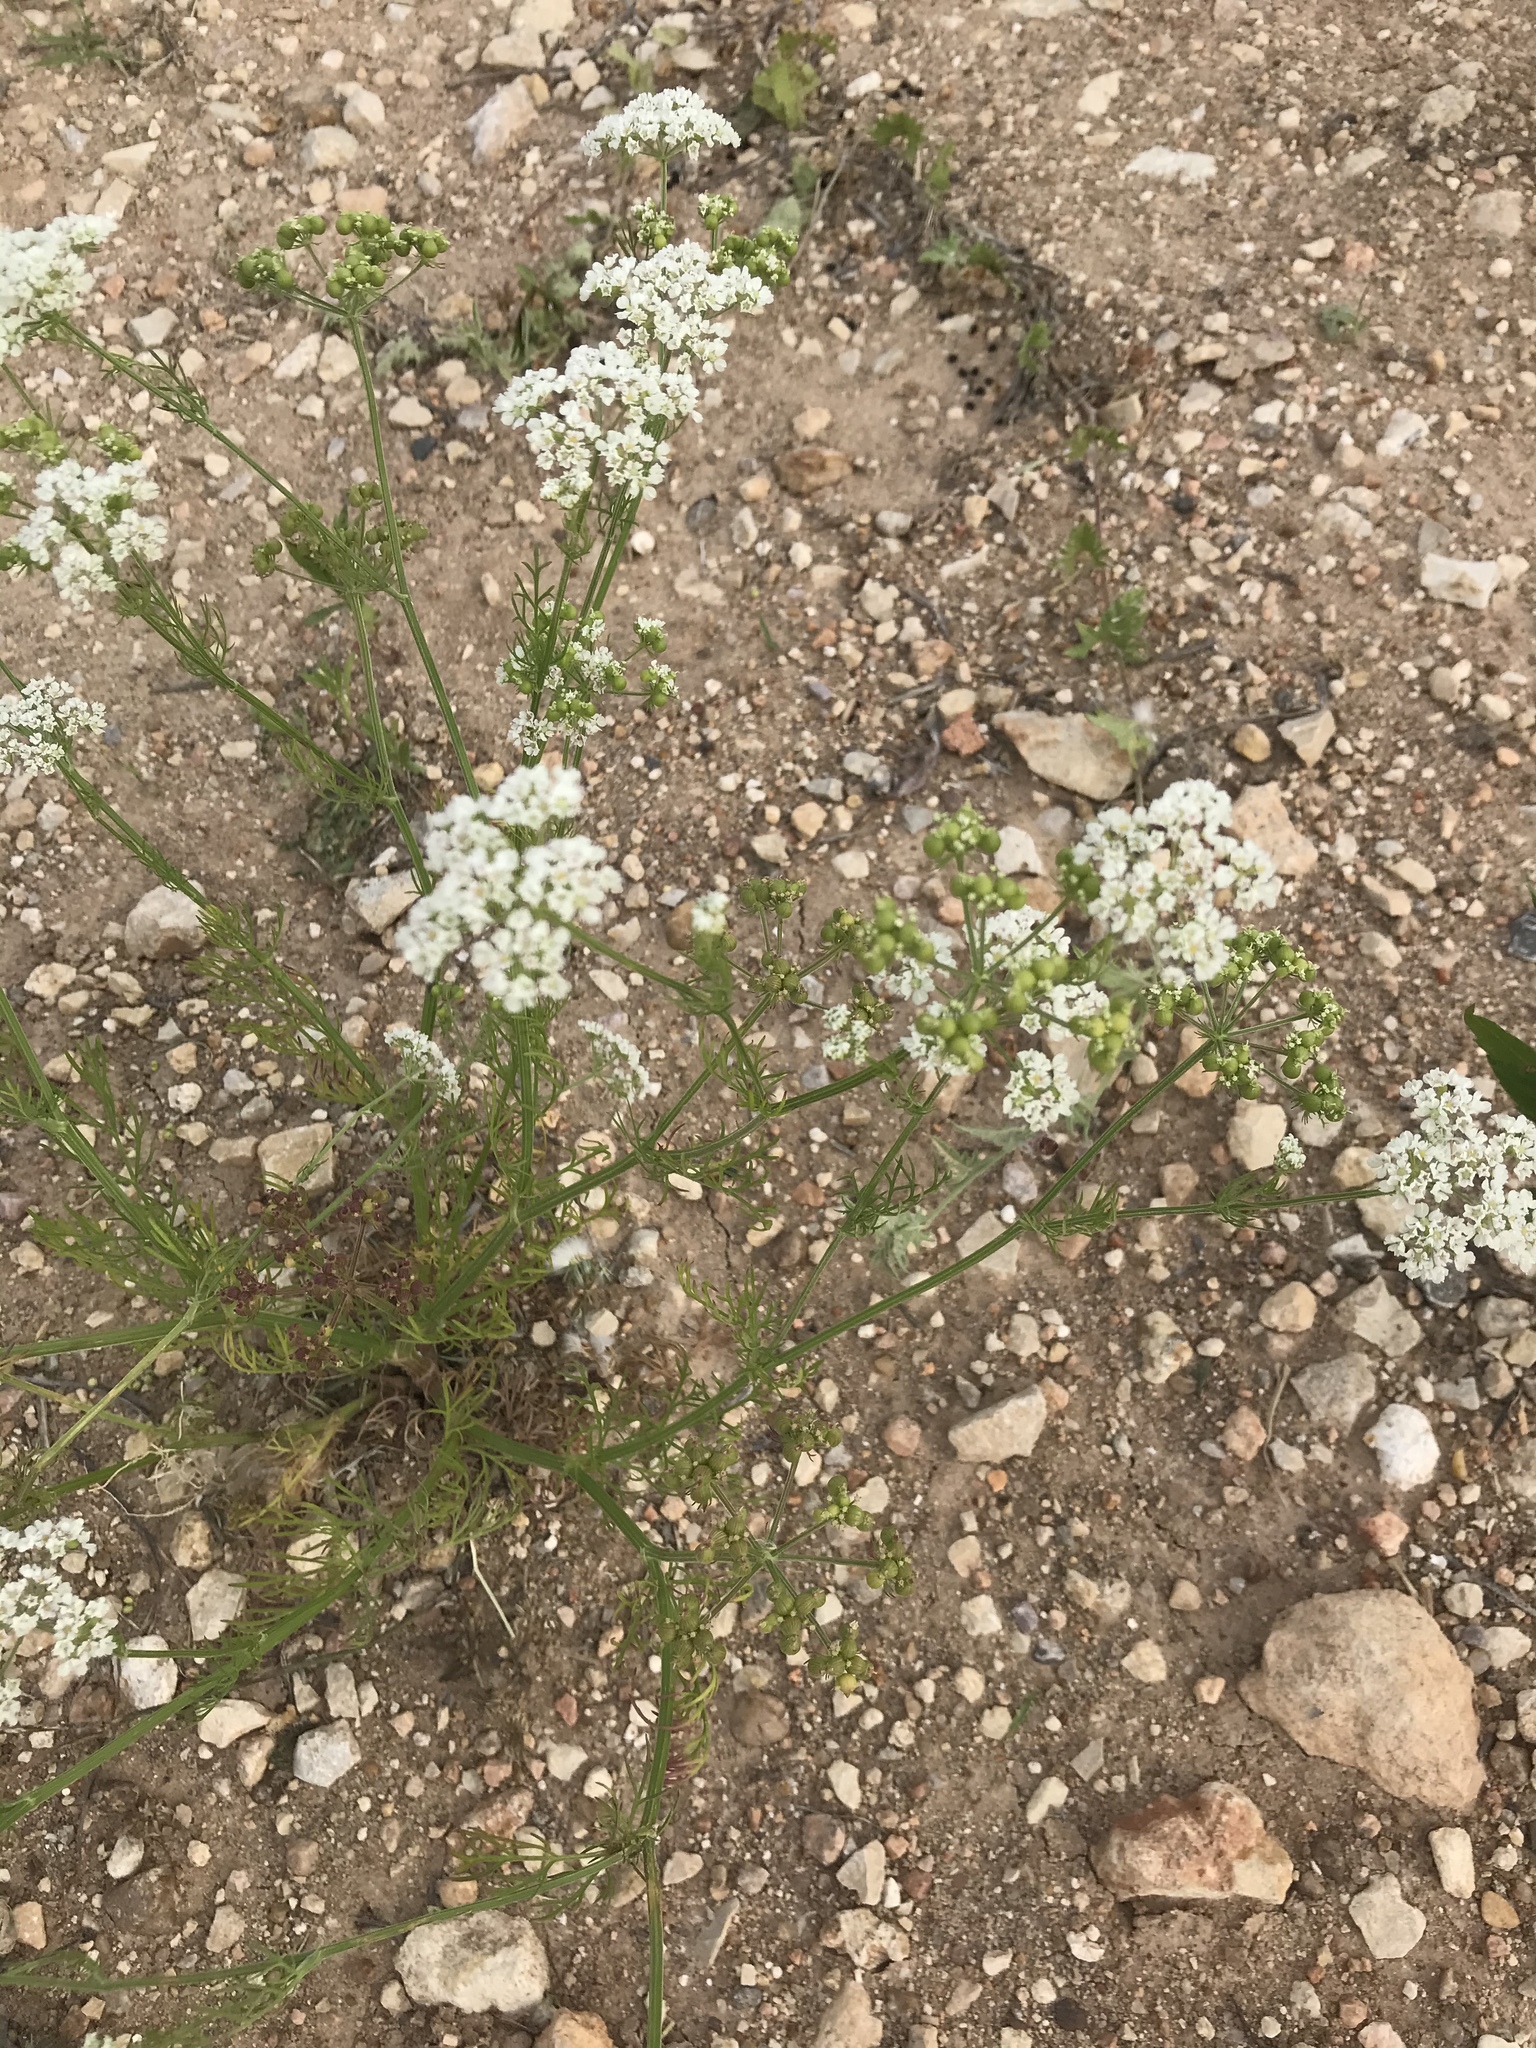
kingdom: Plantae
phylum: Tracheophyta
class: Magnoliopsida
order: Apiales
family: Apiaceae
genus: Atrema
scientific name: Atrema americanum
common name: Prairie-bishop
